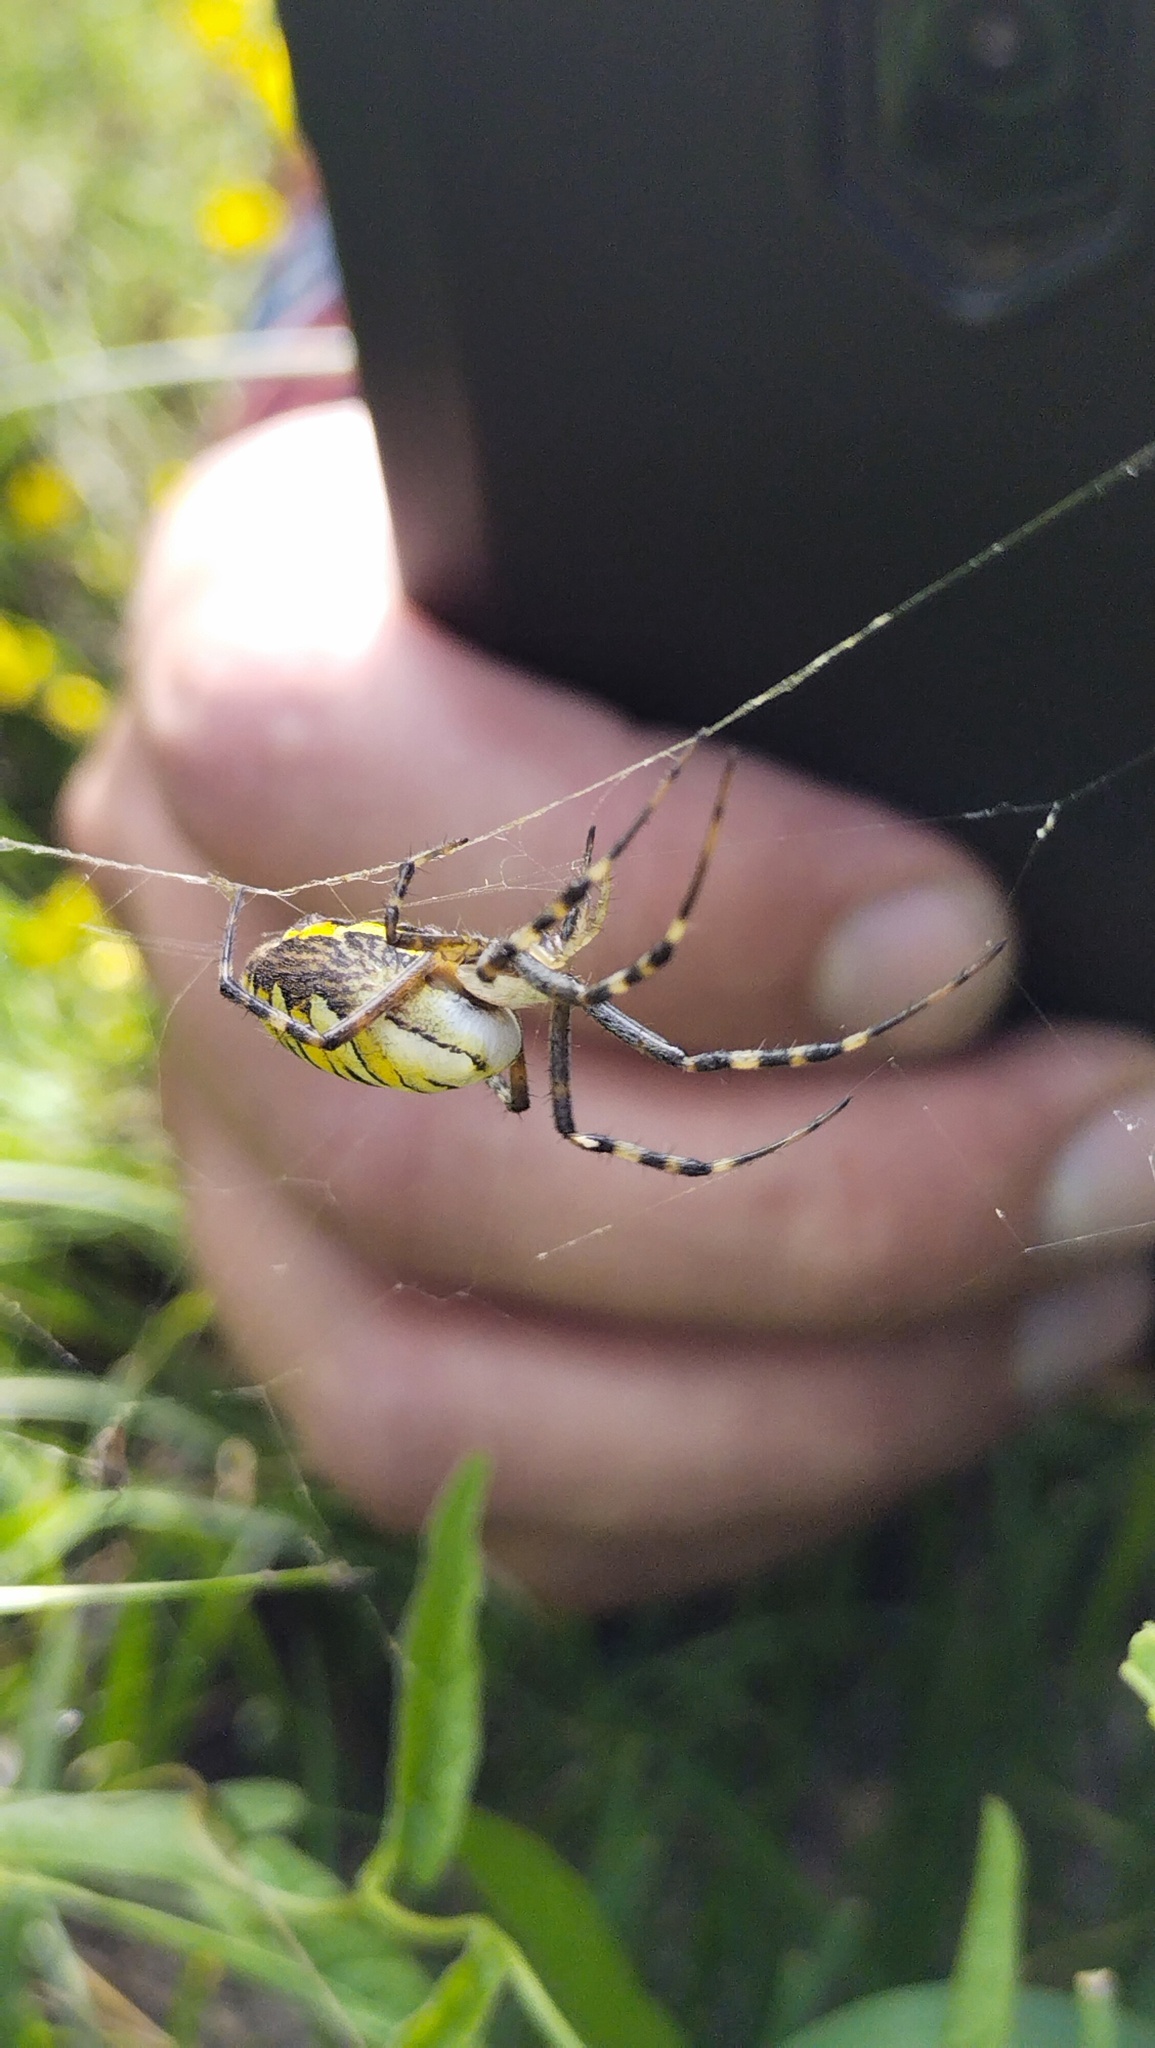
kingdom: Animalia
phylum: Arthropoda
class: Arachnida
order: Araneae
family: Araneidae
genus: Argiope
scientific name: Argiope bruennichi
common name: Wasp spider
